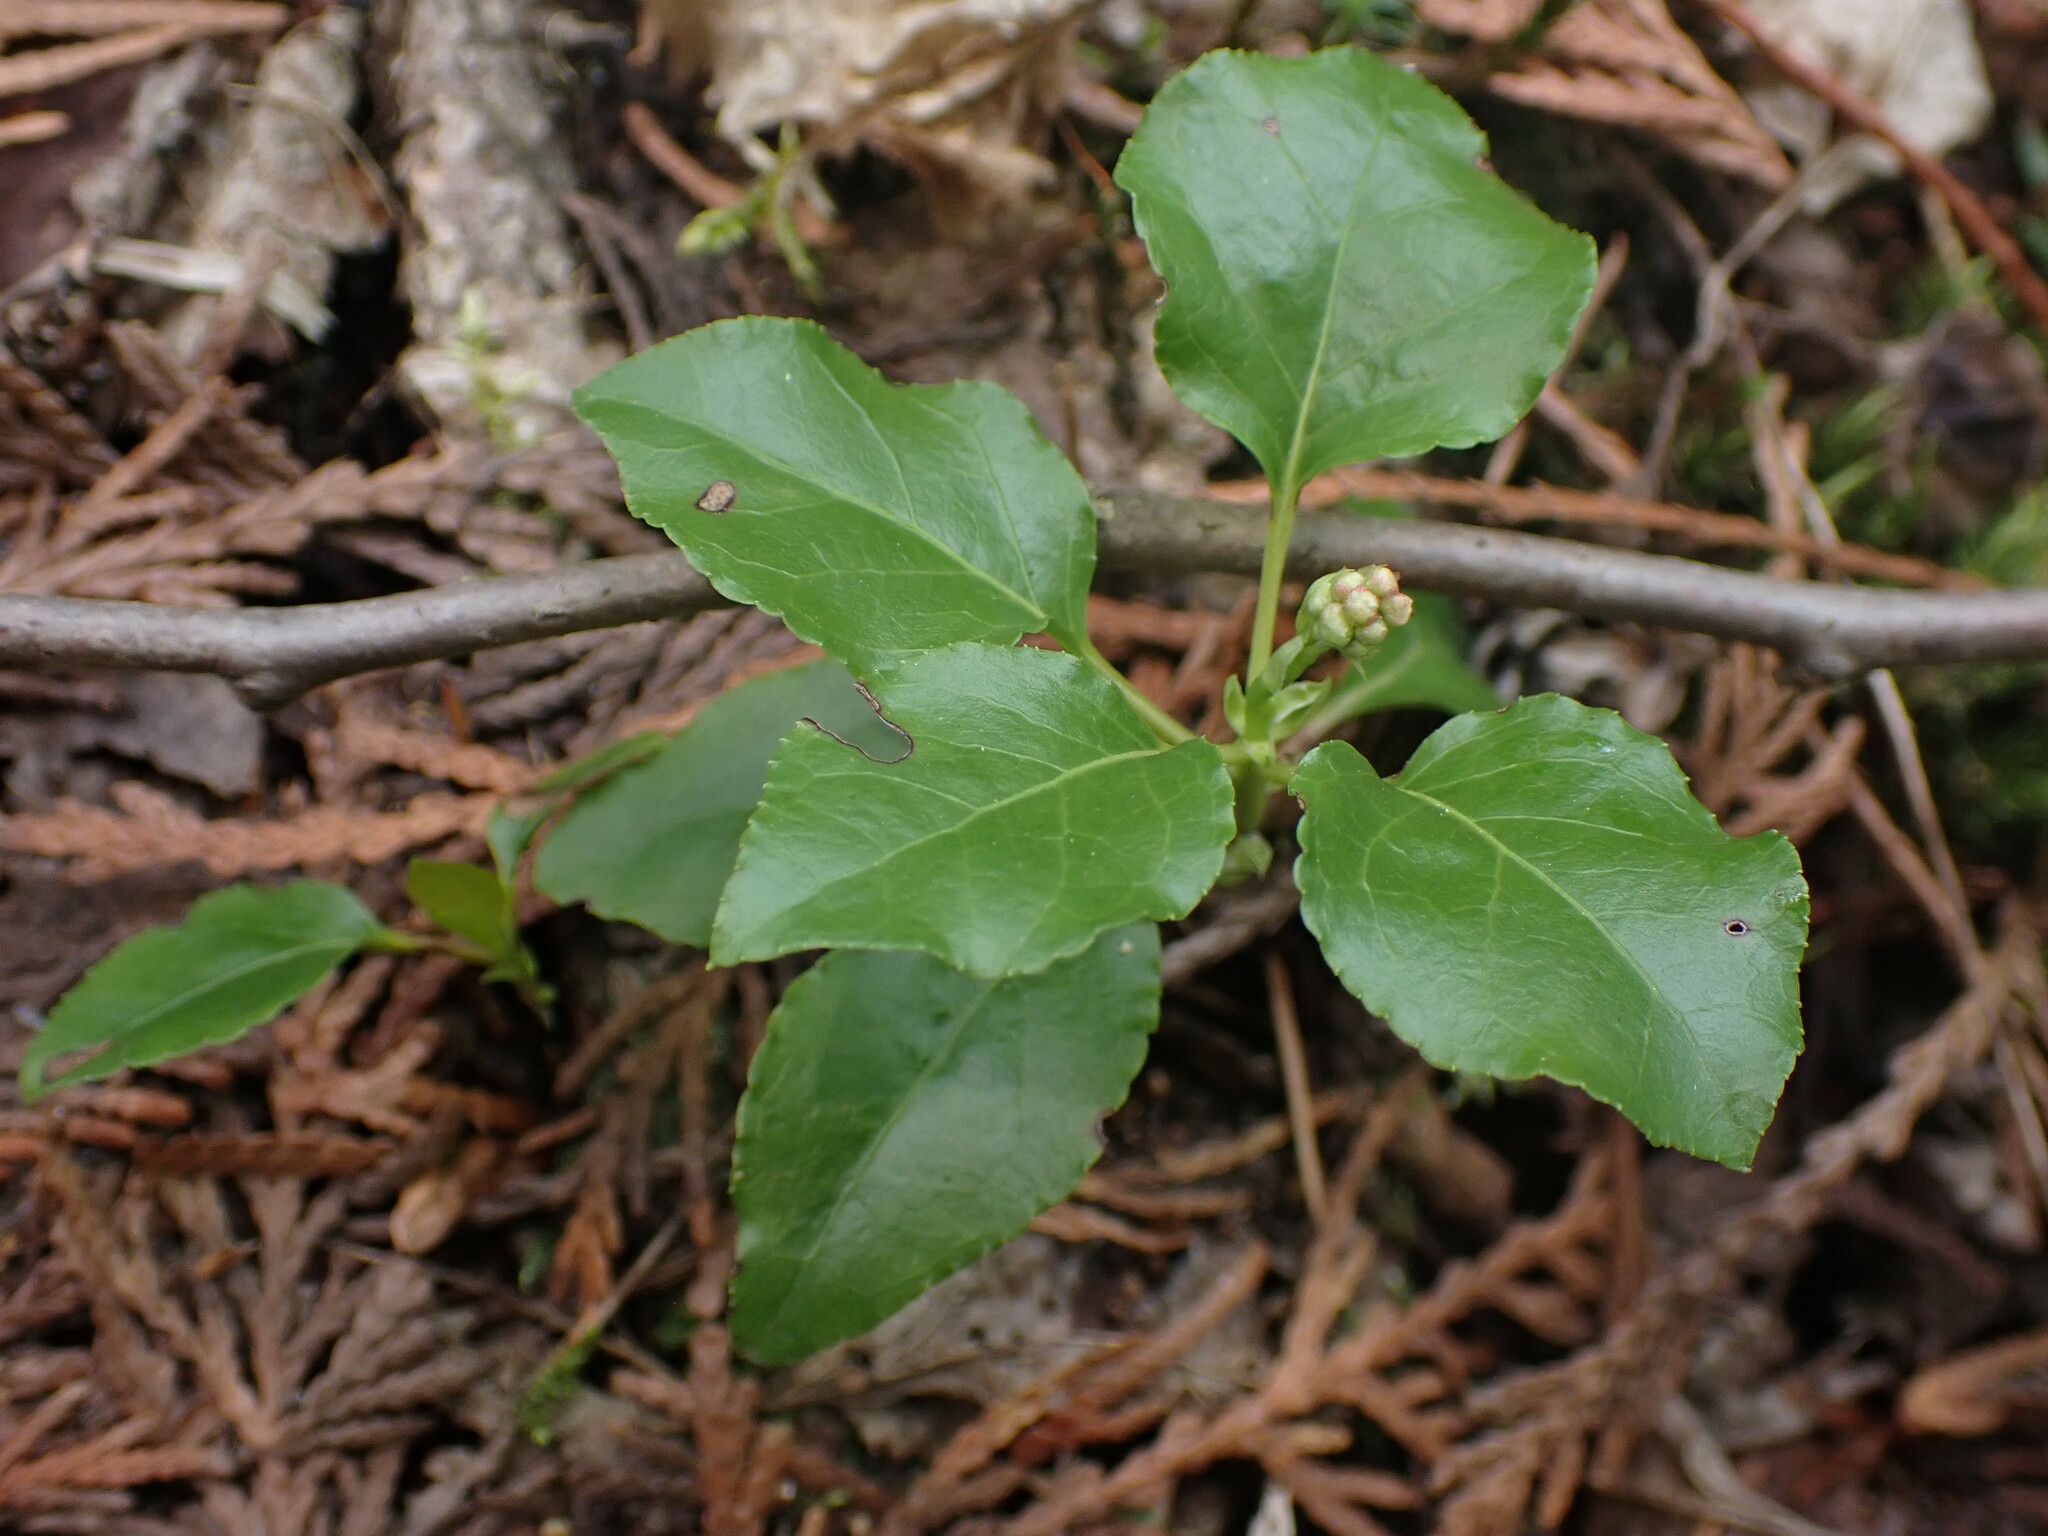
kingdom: Plantae
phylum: Tracheophyta
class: Magnoliopsida
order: Ericales
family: Ericaceae
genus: Orthilia
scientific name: Orthilia secunda
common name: One-sided orthilia
